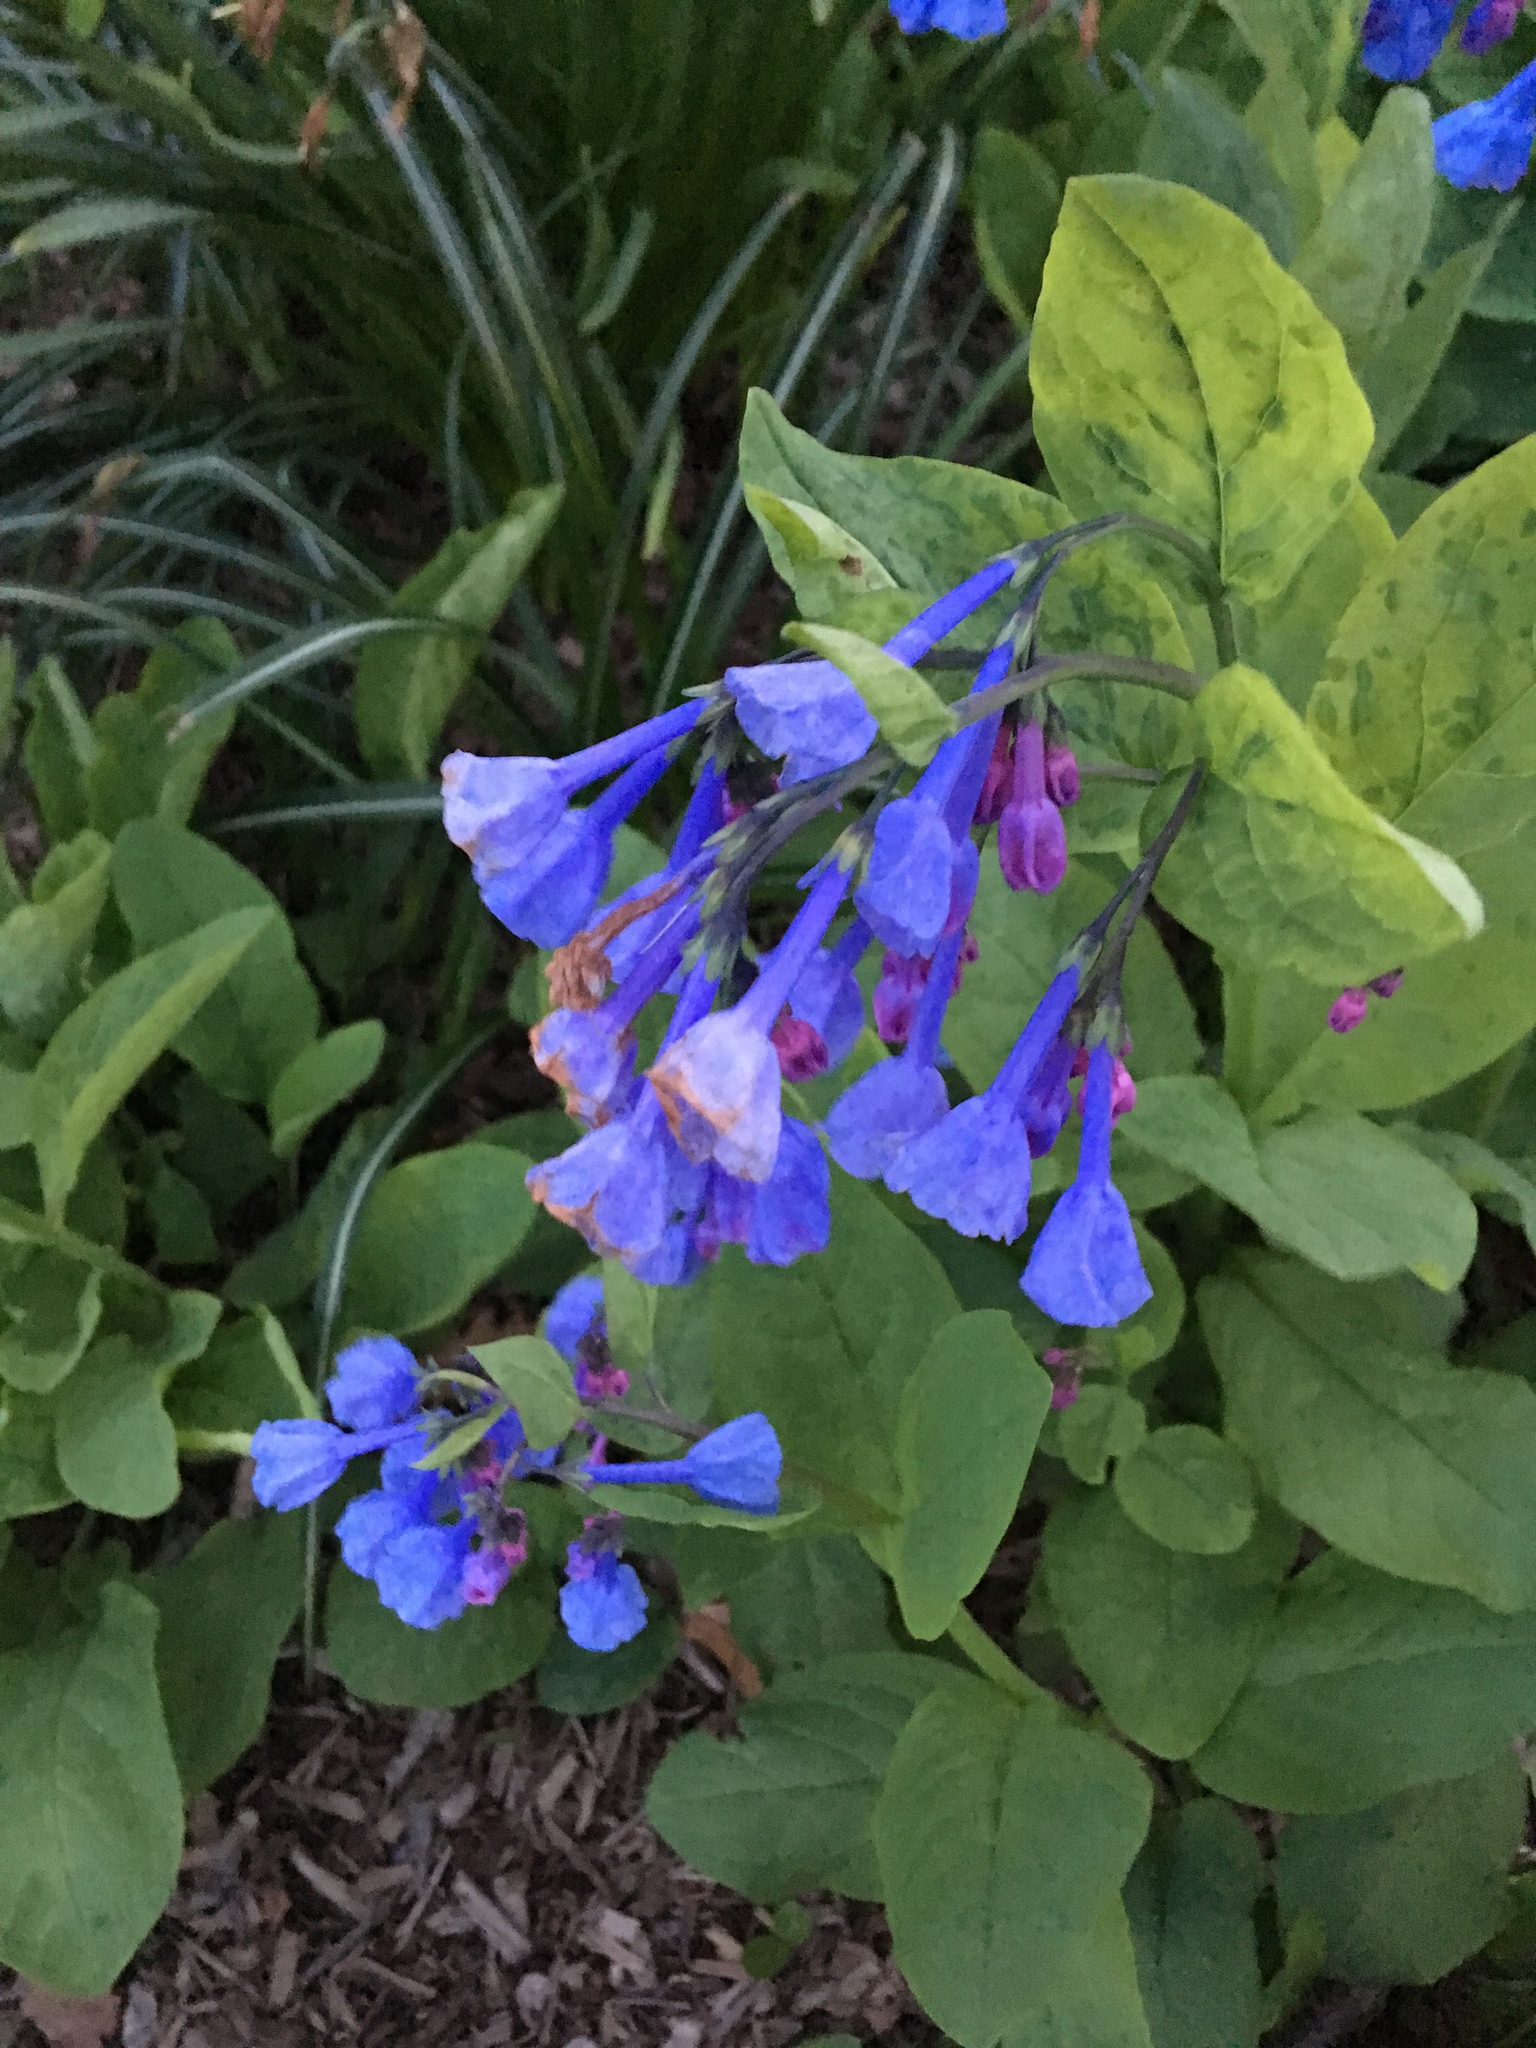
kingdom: Plantae
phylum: Tracheophyta
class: Magnoliopsida
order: Boraginales
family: Boraginaceae
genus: Mertensia
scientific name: Mertensia virginica
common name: Virginia bluebells
